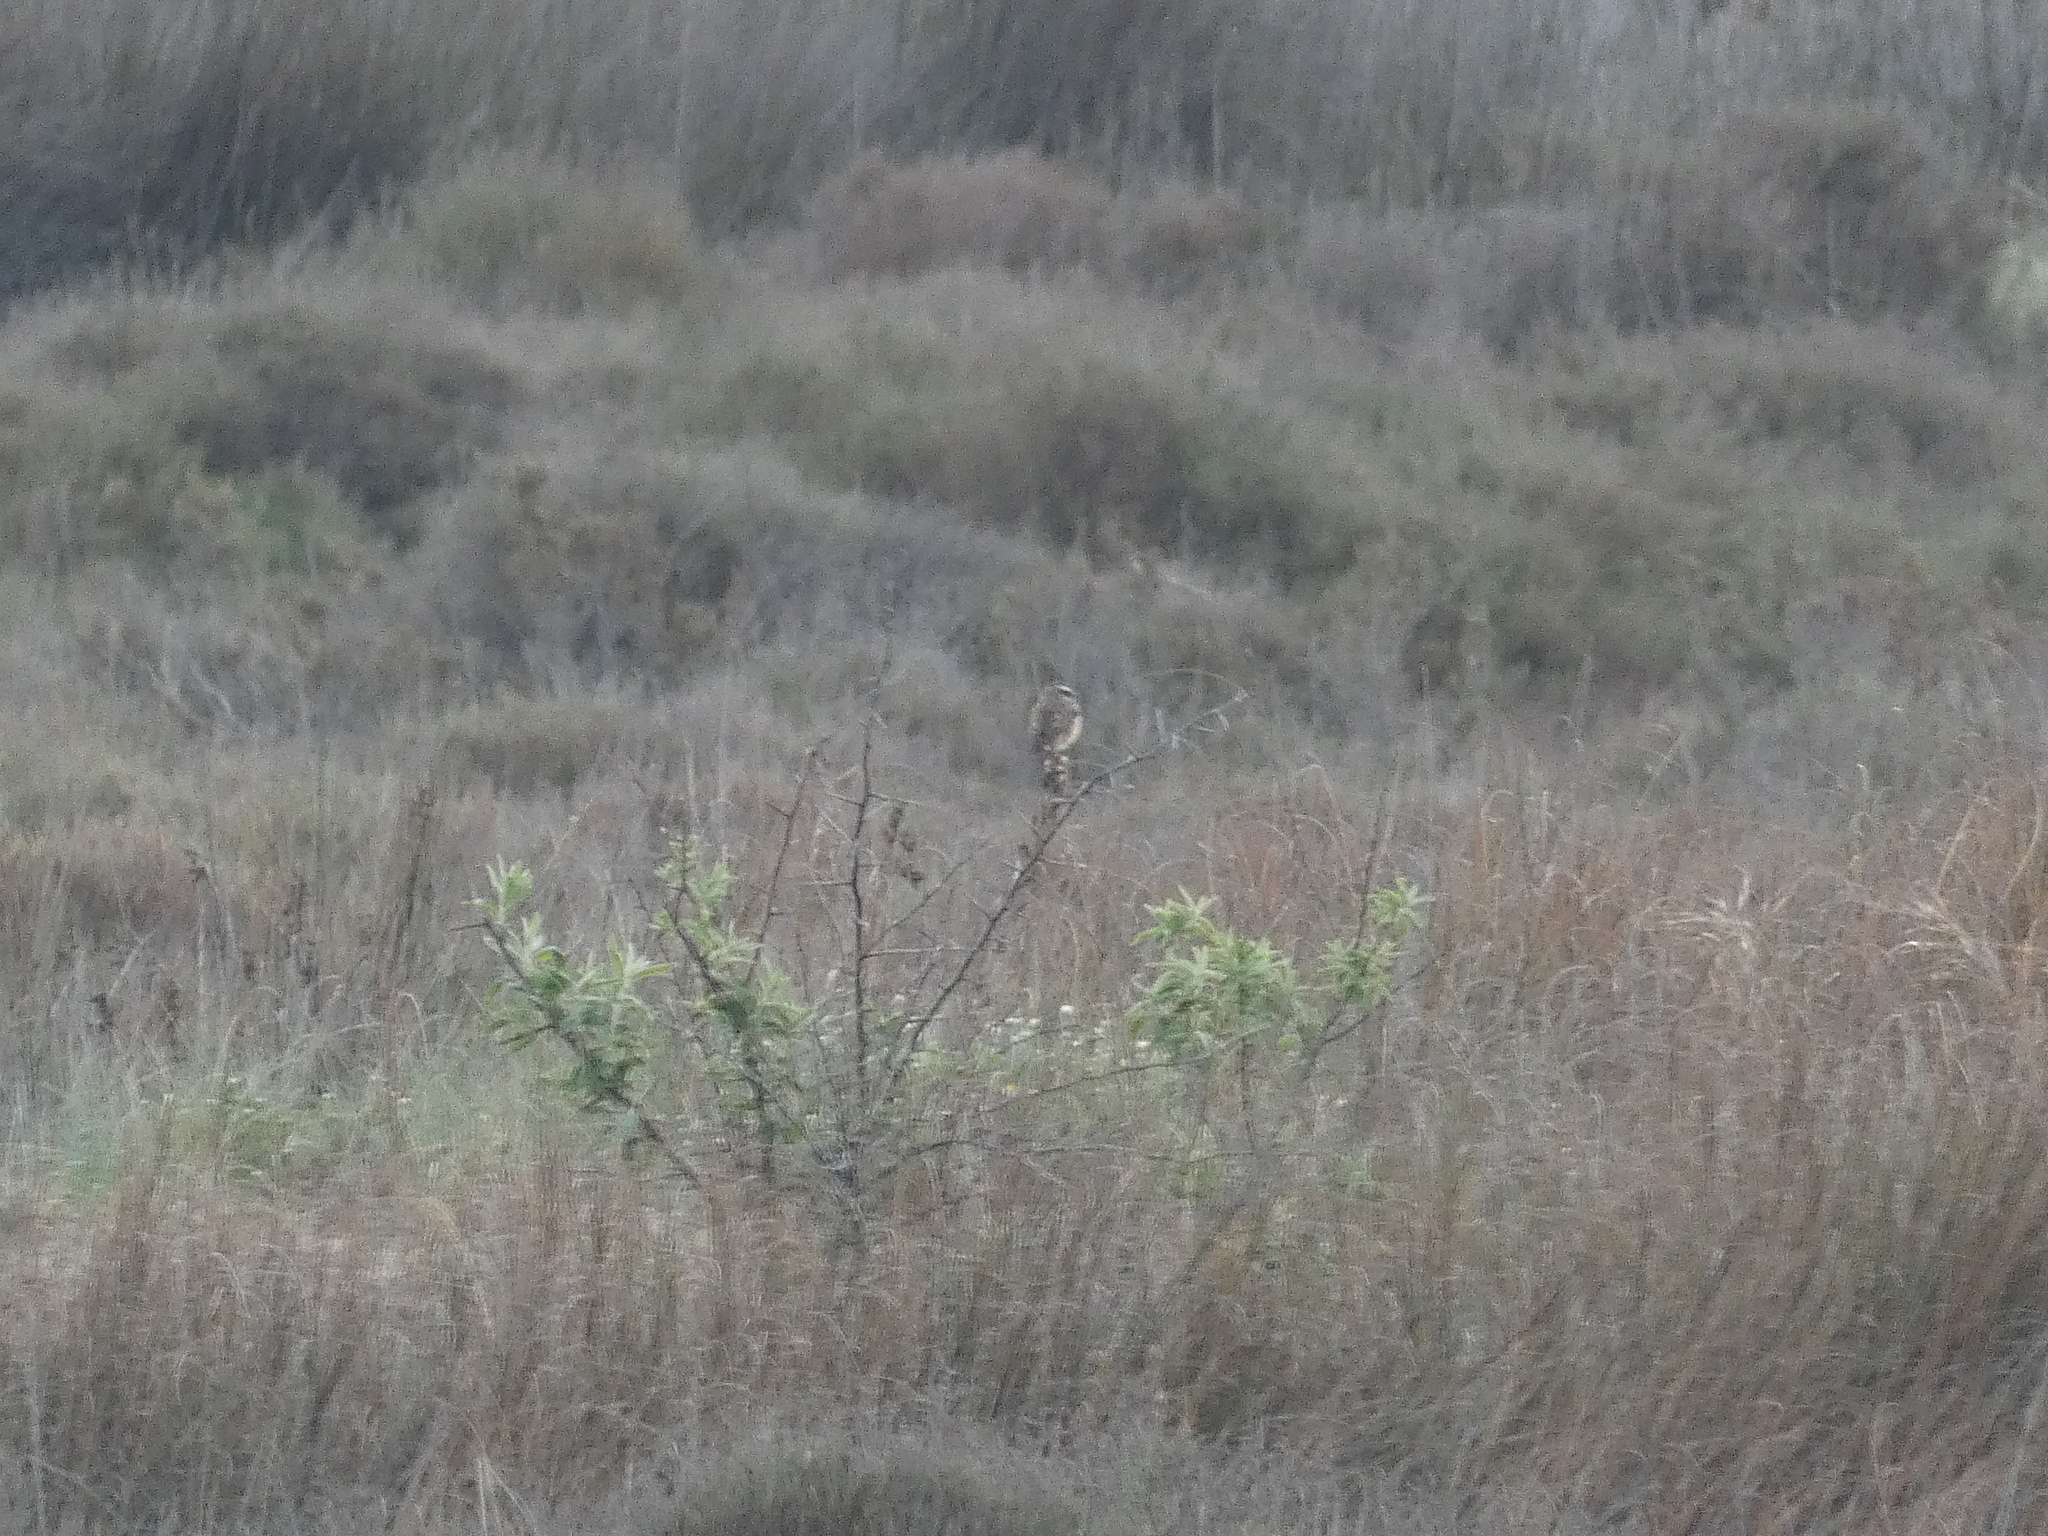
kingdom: Animalia
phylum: Chordata
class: Aves
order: Passeriformes
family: Muscicapidae
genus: Saxicola
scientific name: Saxicola rubetra
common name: Whinchat
